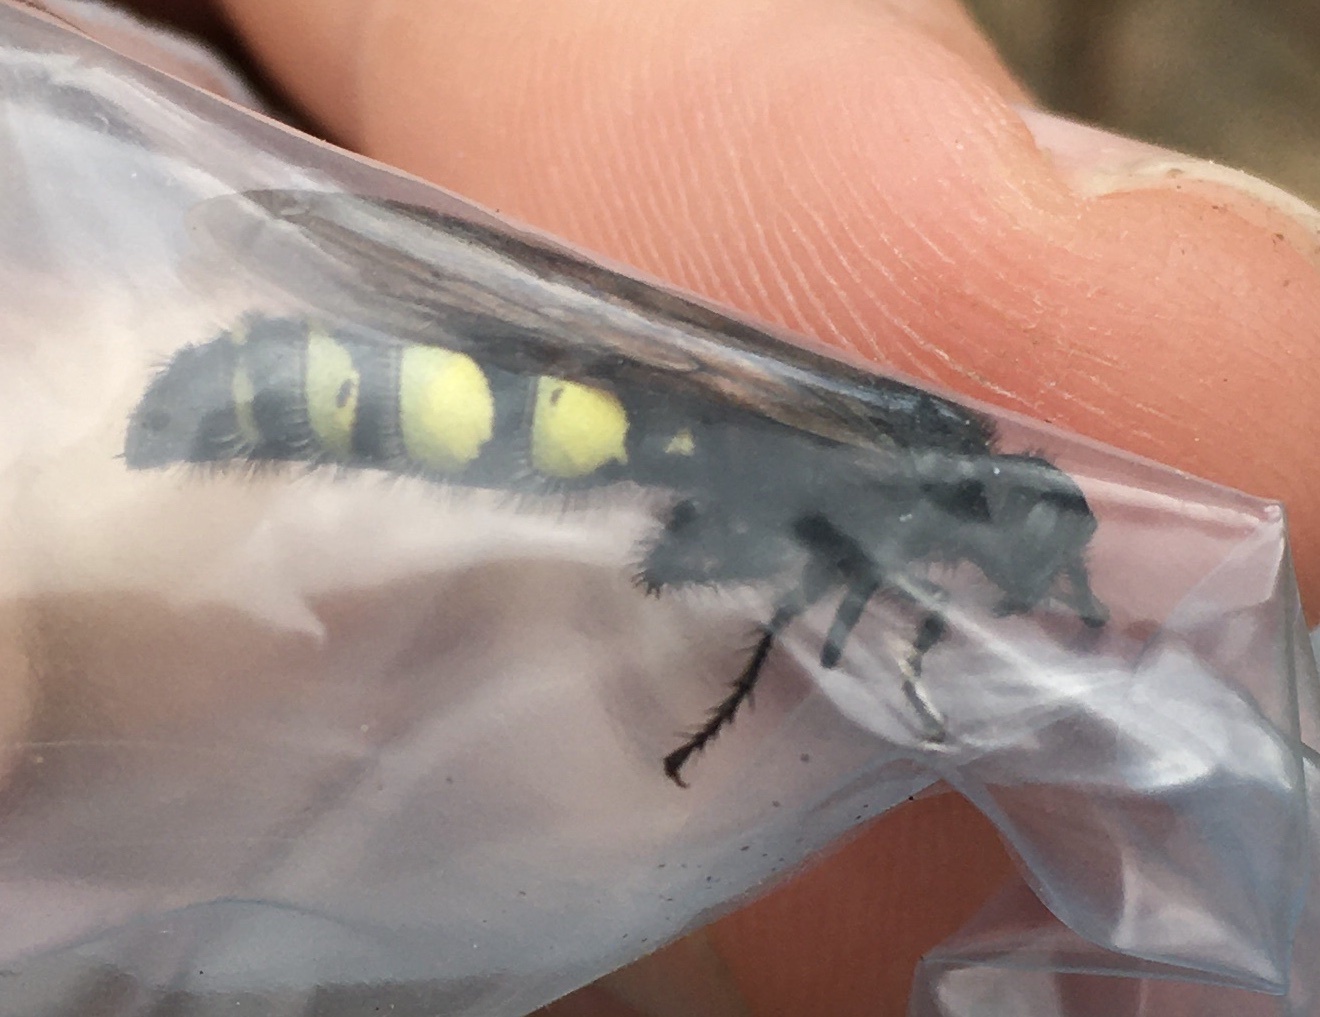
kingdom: Animalia
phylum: Arthropoda
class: Insecta
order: Hymenoptera
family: Scoliidae
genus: Pygodasis
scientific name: Pygodasis
